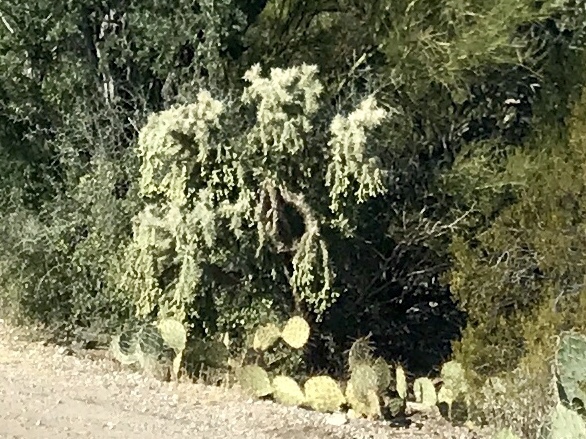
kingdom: Plantae
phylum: Tracheophyta
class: Magnoliopsida
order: Caryophyllales
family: Cactaceae
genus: Cylindropuntia
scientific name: Cylindropuntia fulgida
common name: Jumping cholla
